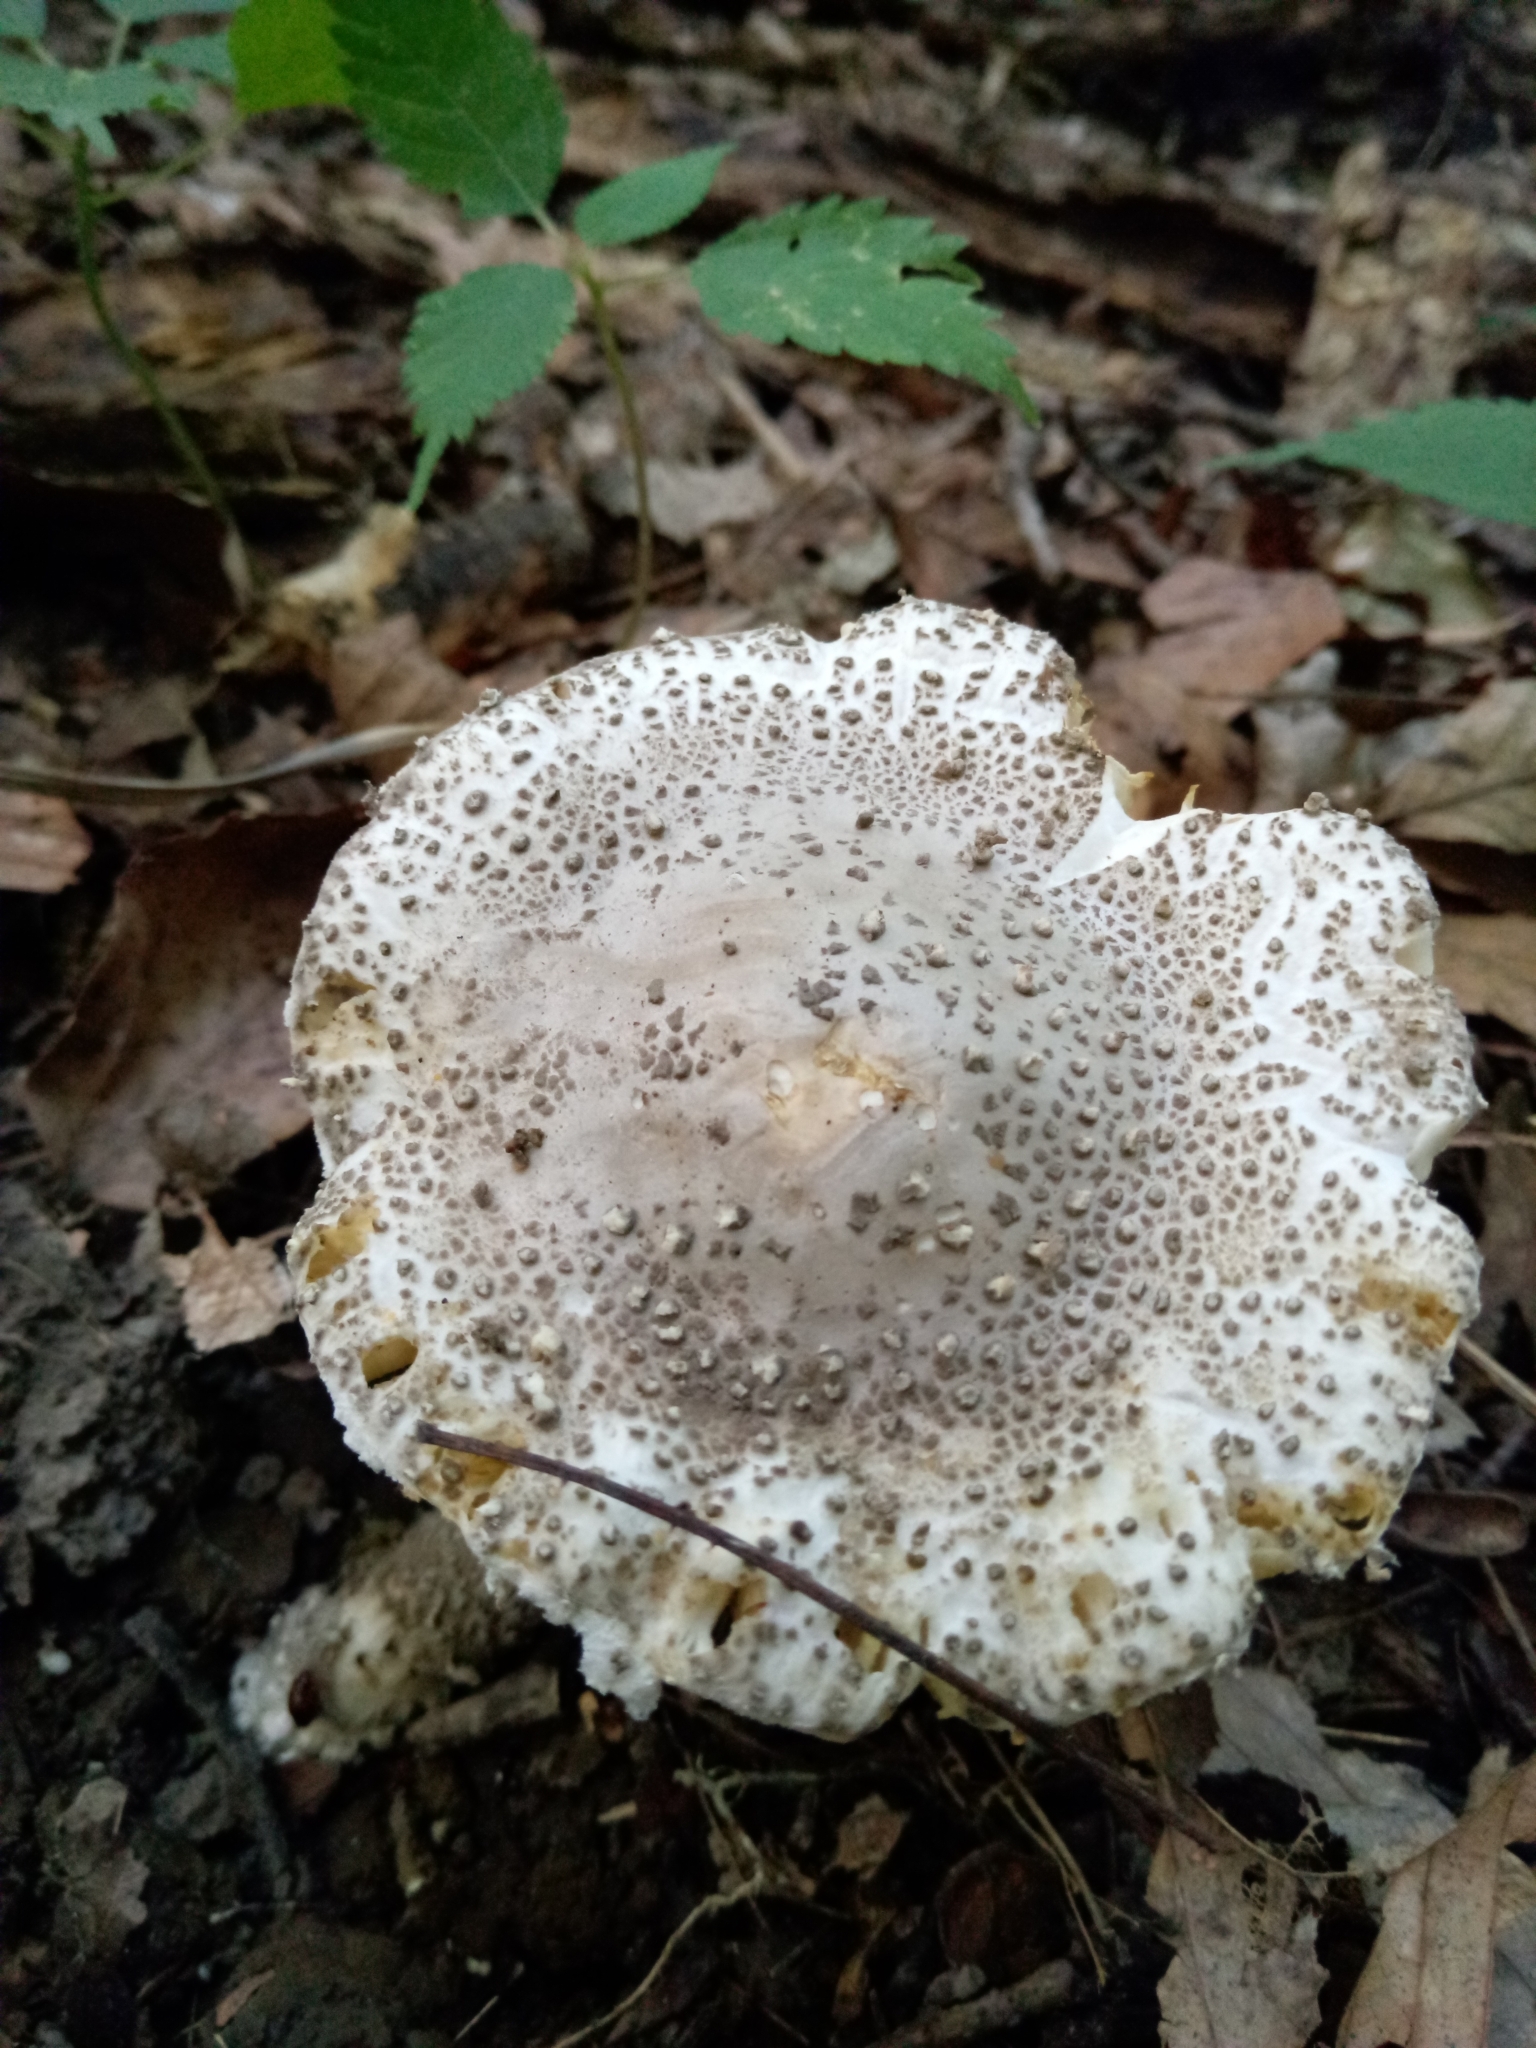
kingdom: Fungi
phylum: Basidiomycota
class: Agaricomycetes
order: Agaricales
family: Amanitaceae
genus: Amanita
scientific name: Amanita onusta
